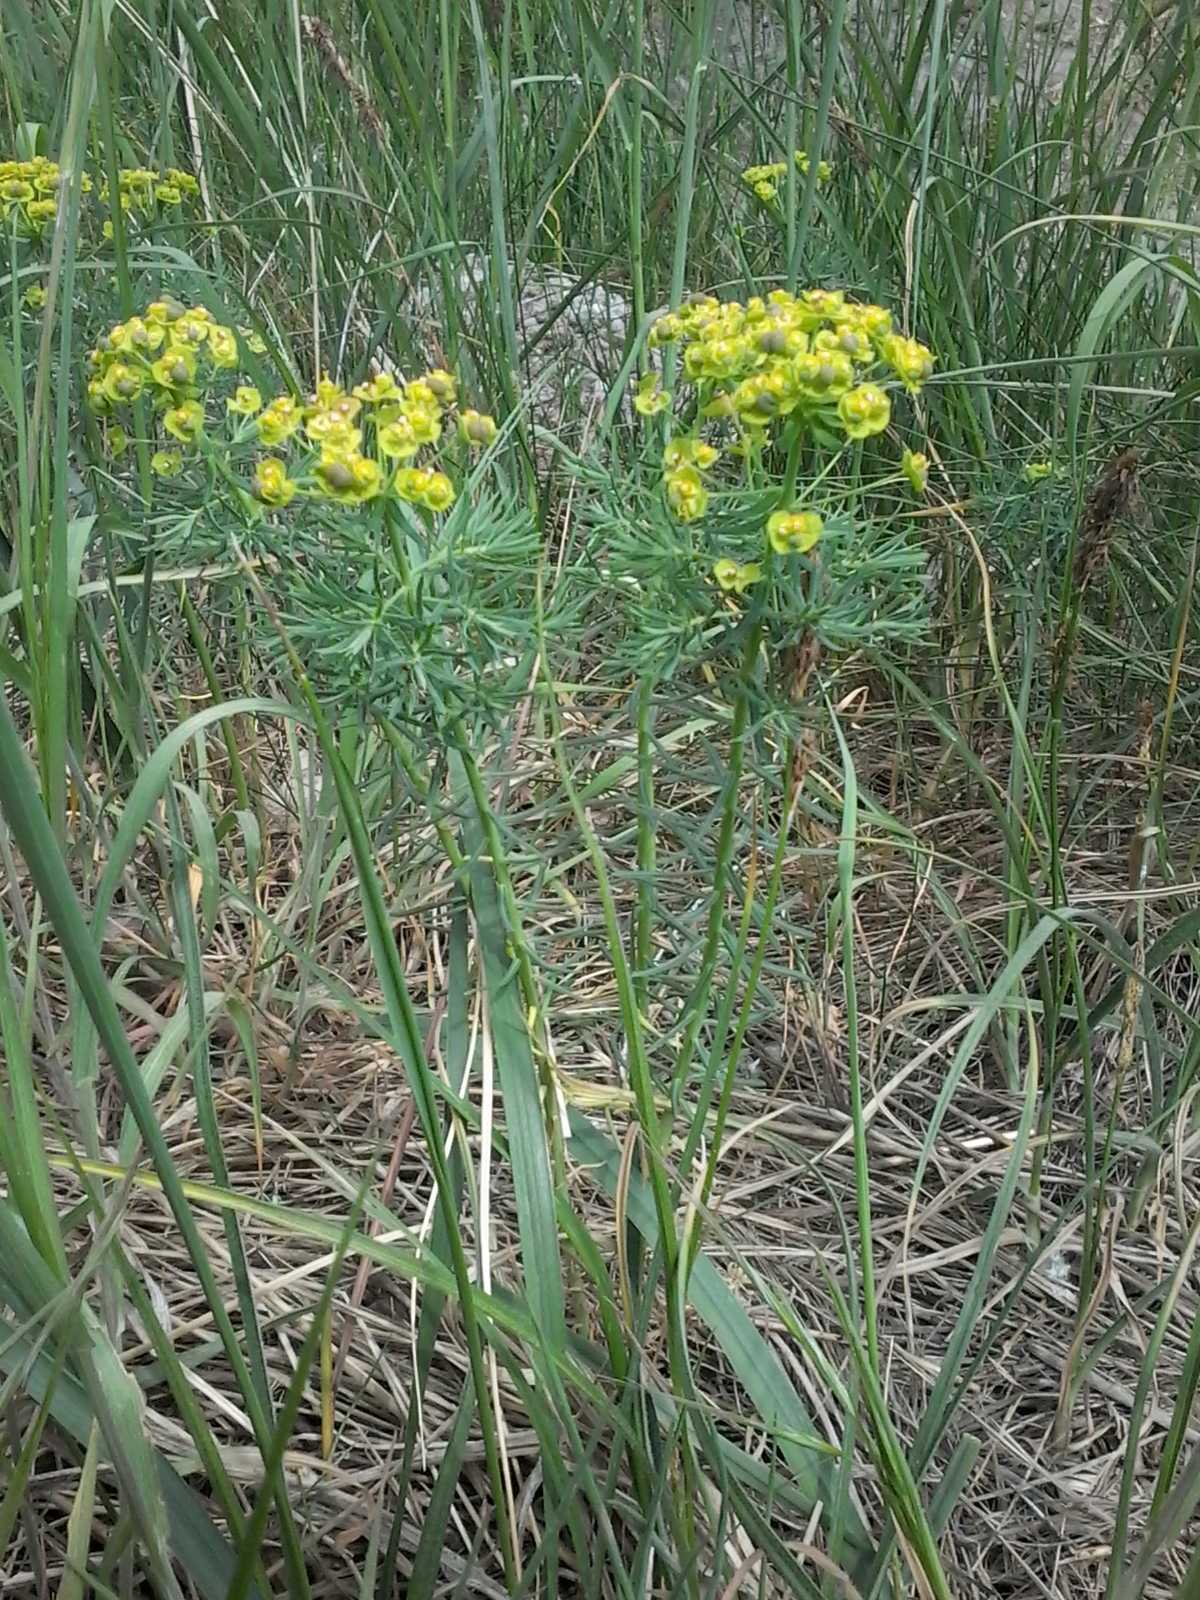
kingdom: Plantae
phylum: Tracheophyta
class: Magnoliopsida
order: Malpighiales
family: Euphorbiaceae
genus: Euphorbia
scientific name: Euphorbia cyparissias
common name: Cypress spurge
